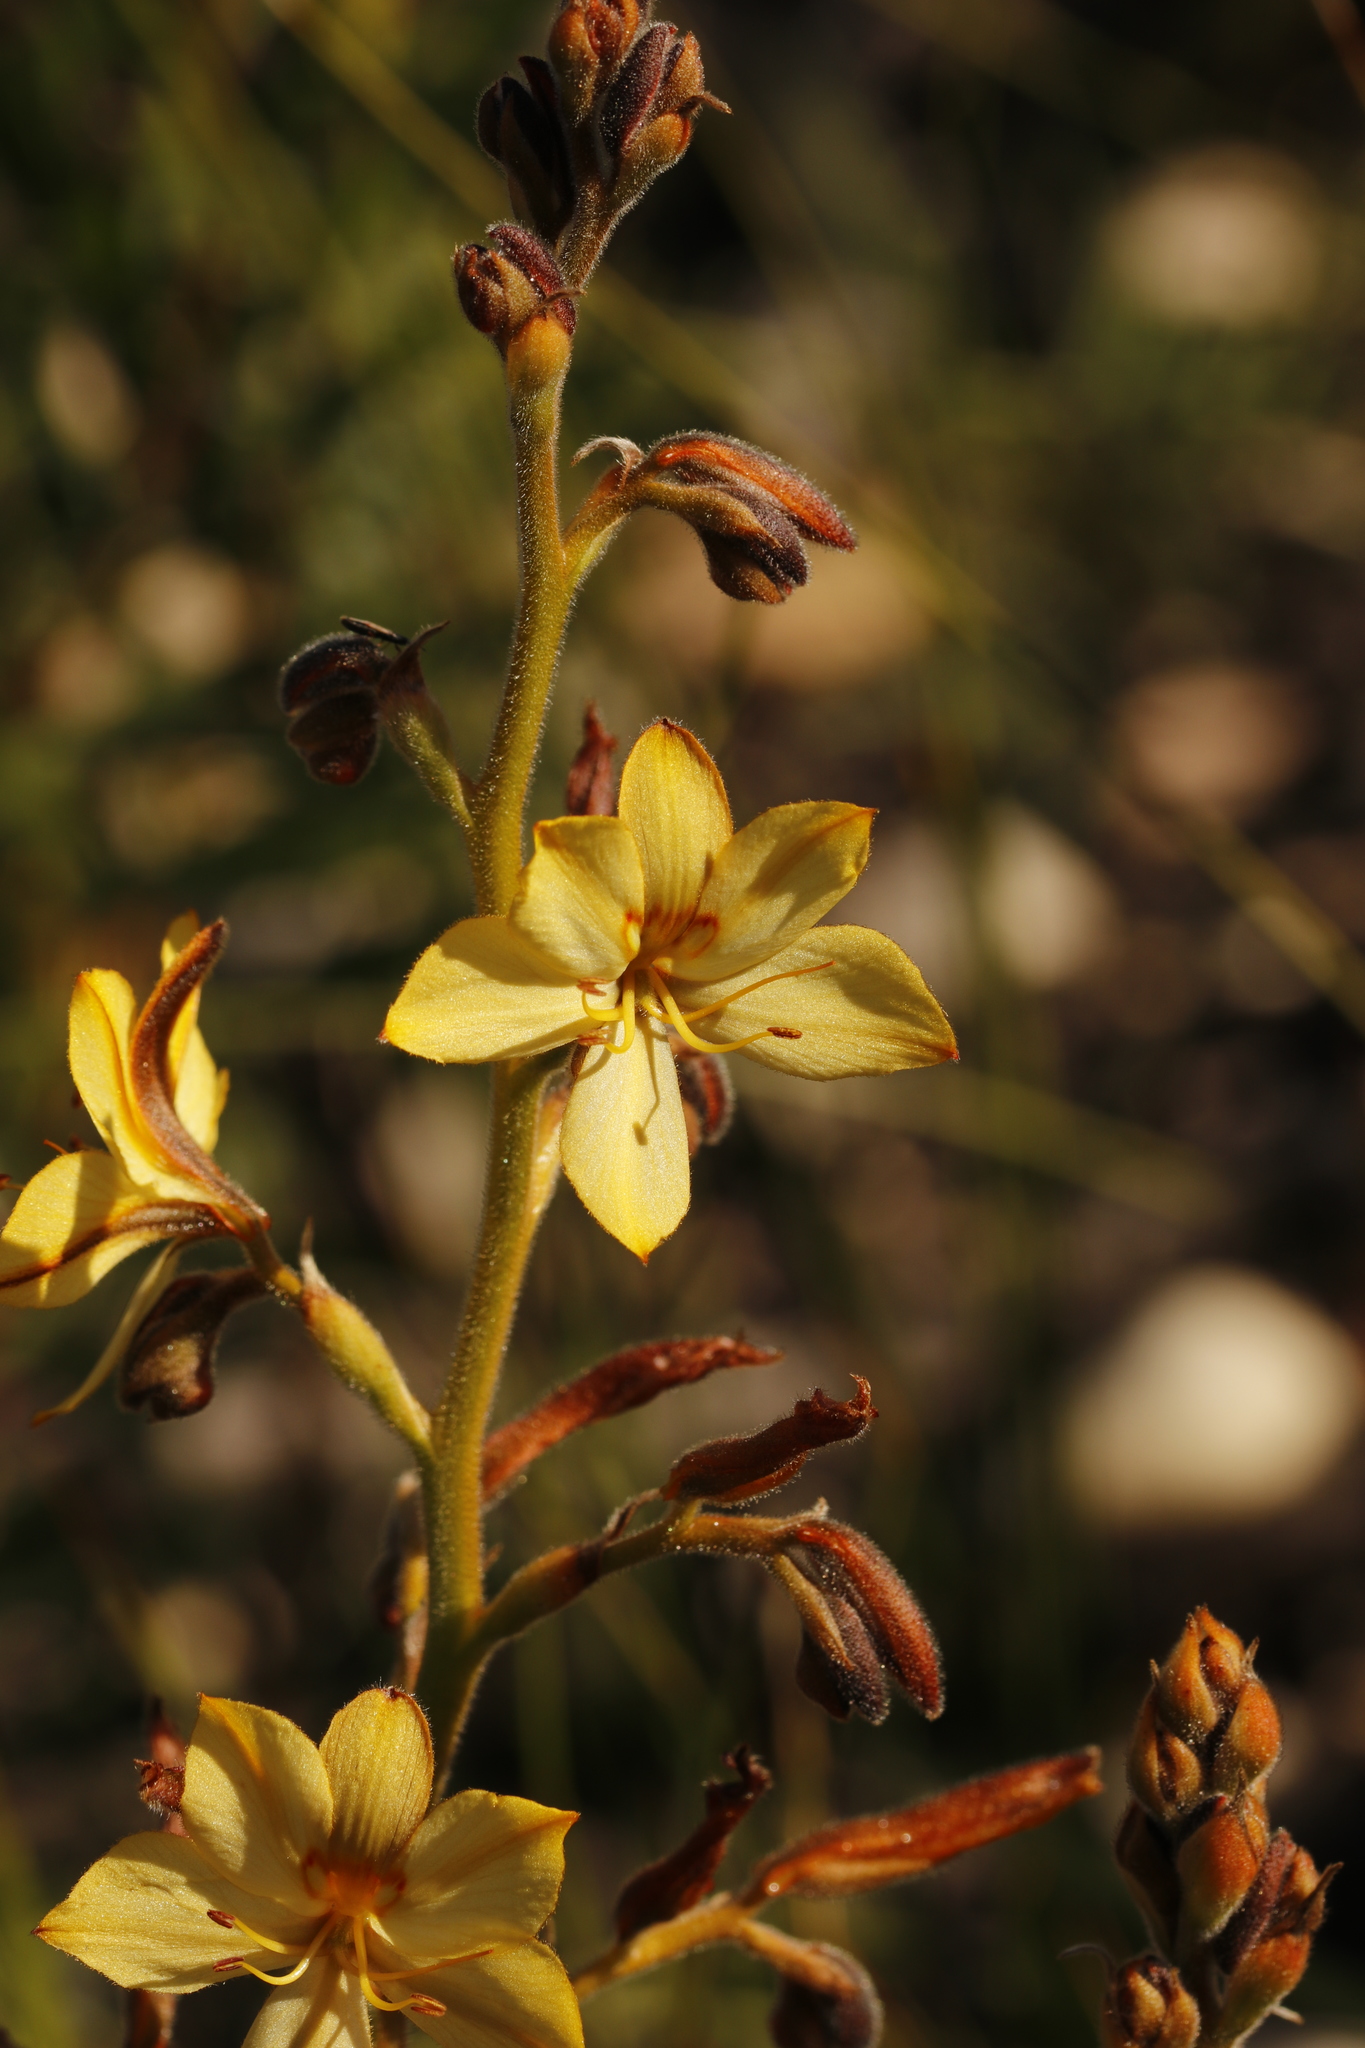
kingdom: Plantae
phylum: Tracheophyta
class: Liliopsida
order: Commelinales
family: Haemodoraceae
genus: Wachendorfia
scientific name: Wachendorfia paniculata
